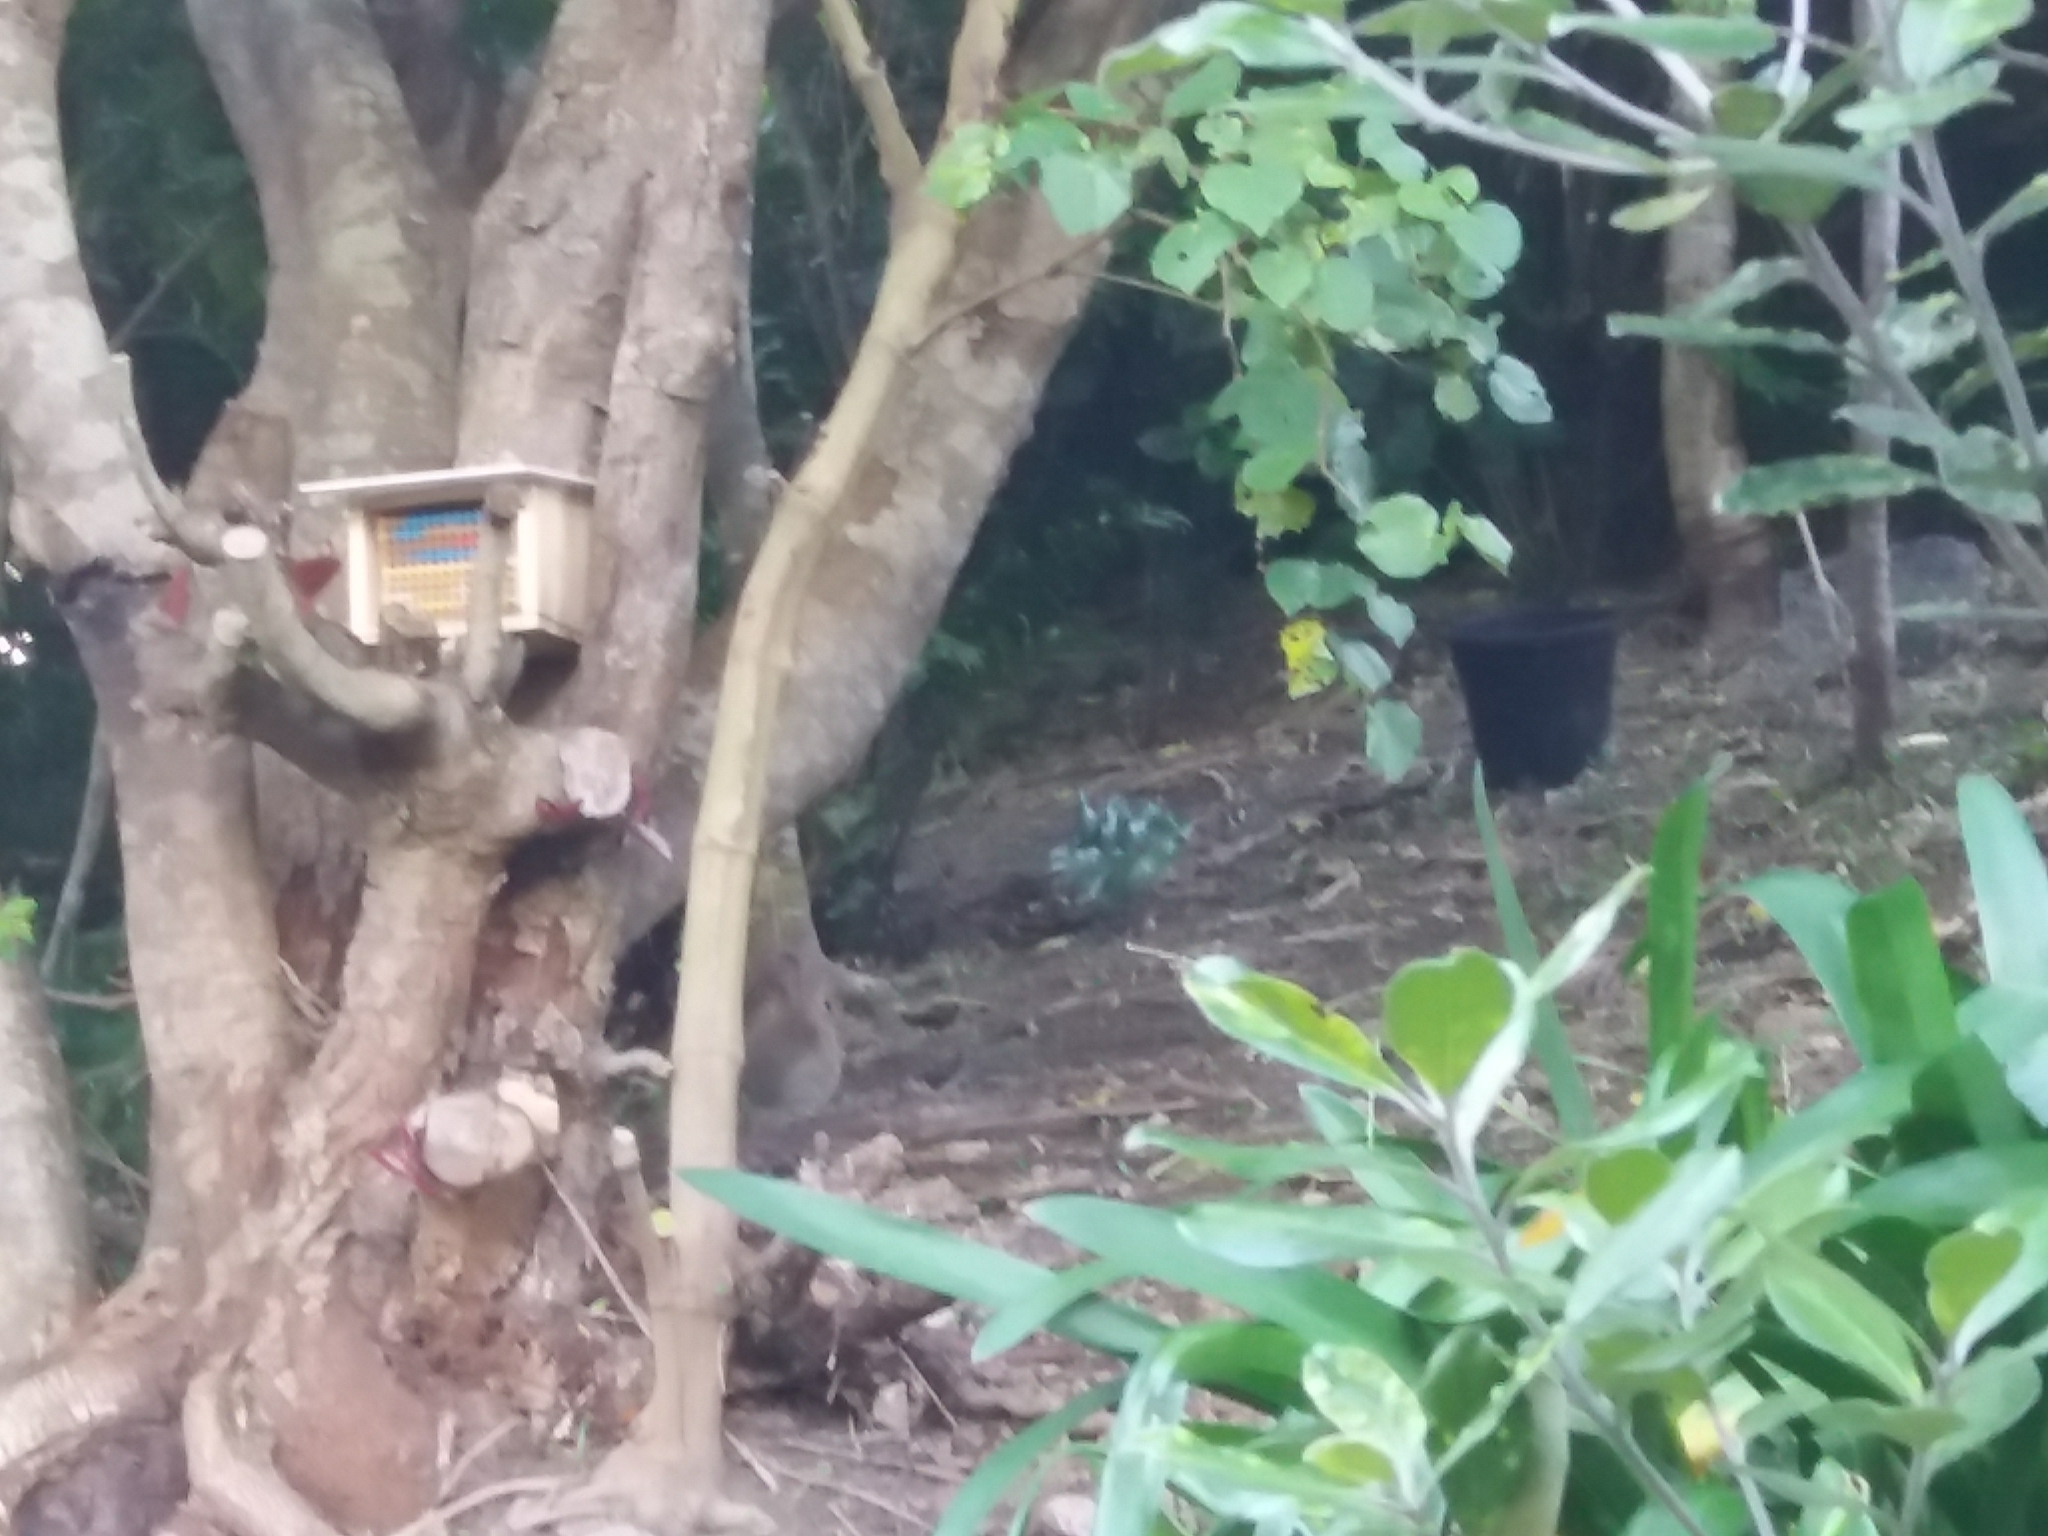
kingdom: Animalia
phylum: Chordata
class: Mammalia
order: Lagomorpha
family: Leporidae
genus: Oryctolagus
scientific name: Oryctolagus cuniculus
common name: European rabbit
